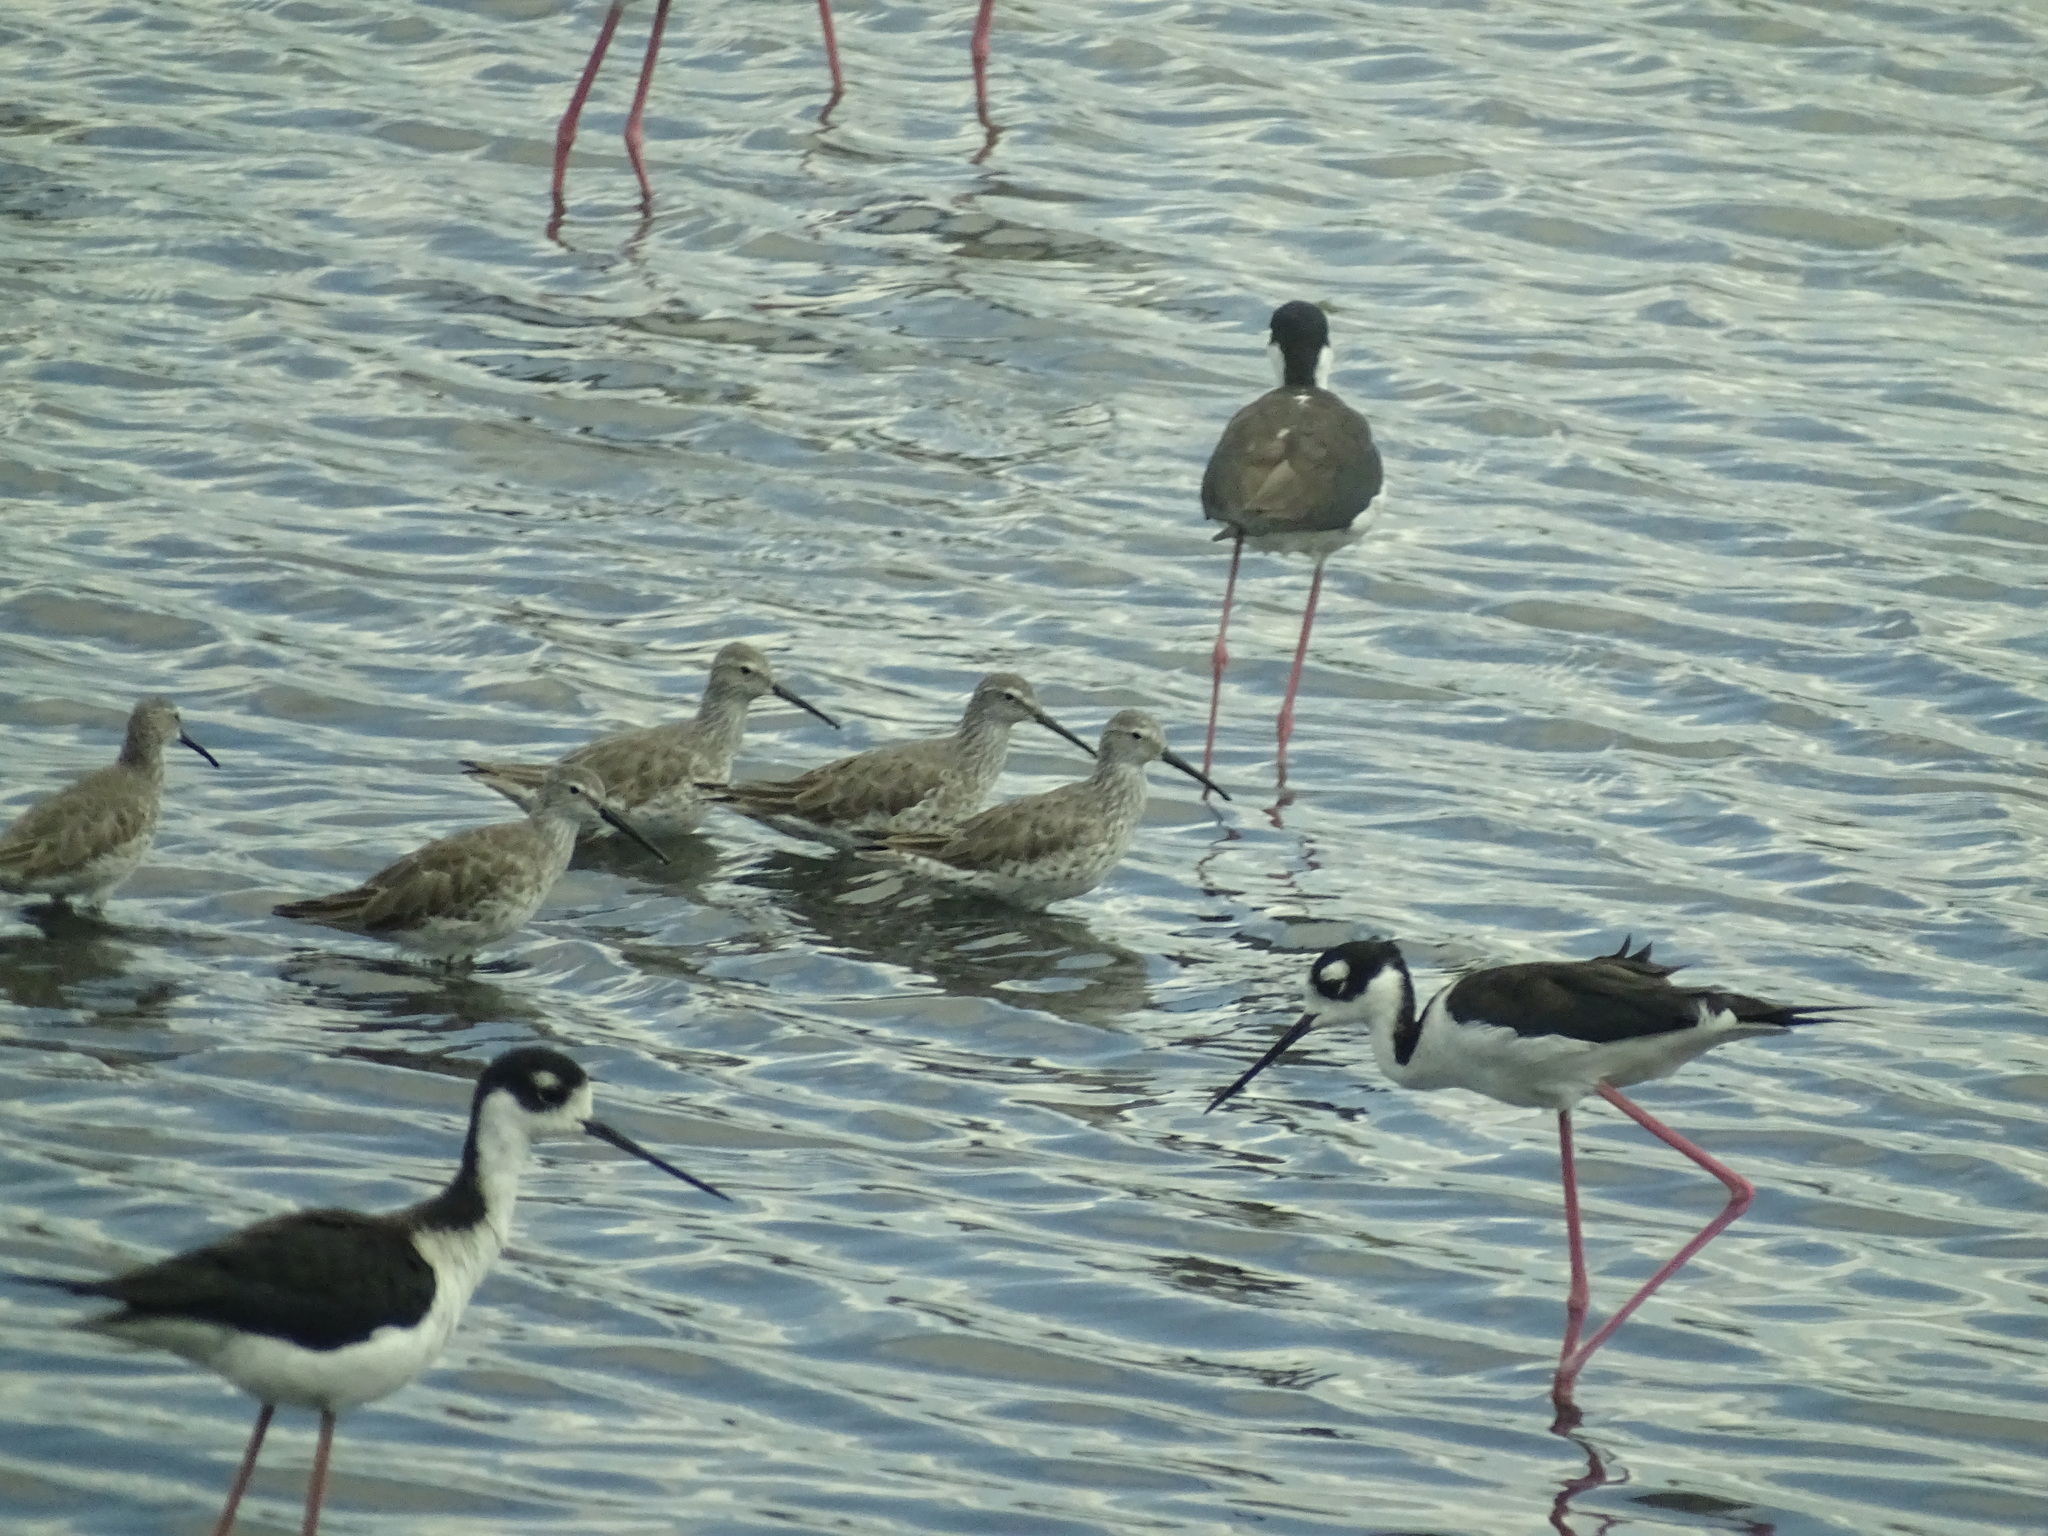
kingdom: Animalia
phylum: Chordata
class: Aves
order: Charadriiformes
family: Scolopacidae
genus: Calidris
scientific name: Calidris himantopus
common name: Stilt sandpiper
